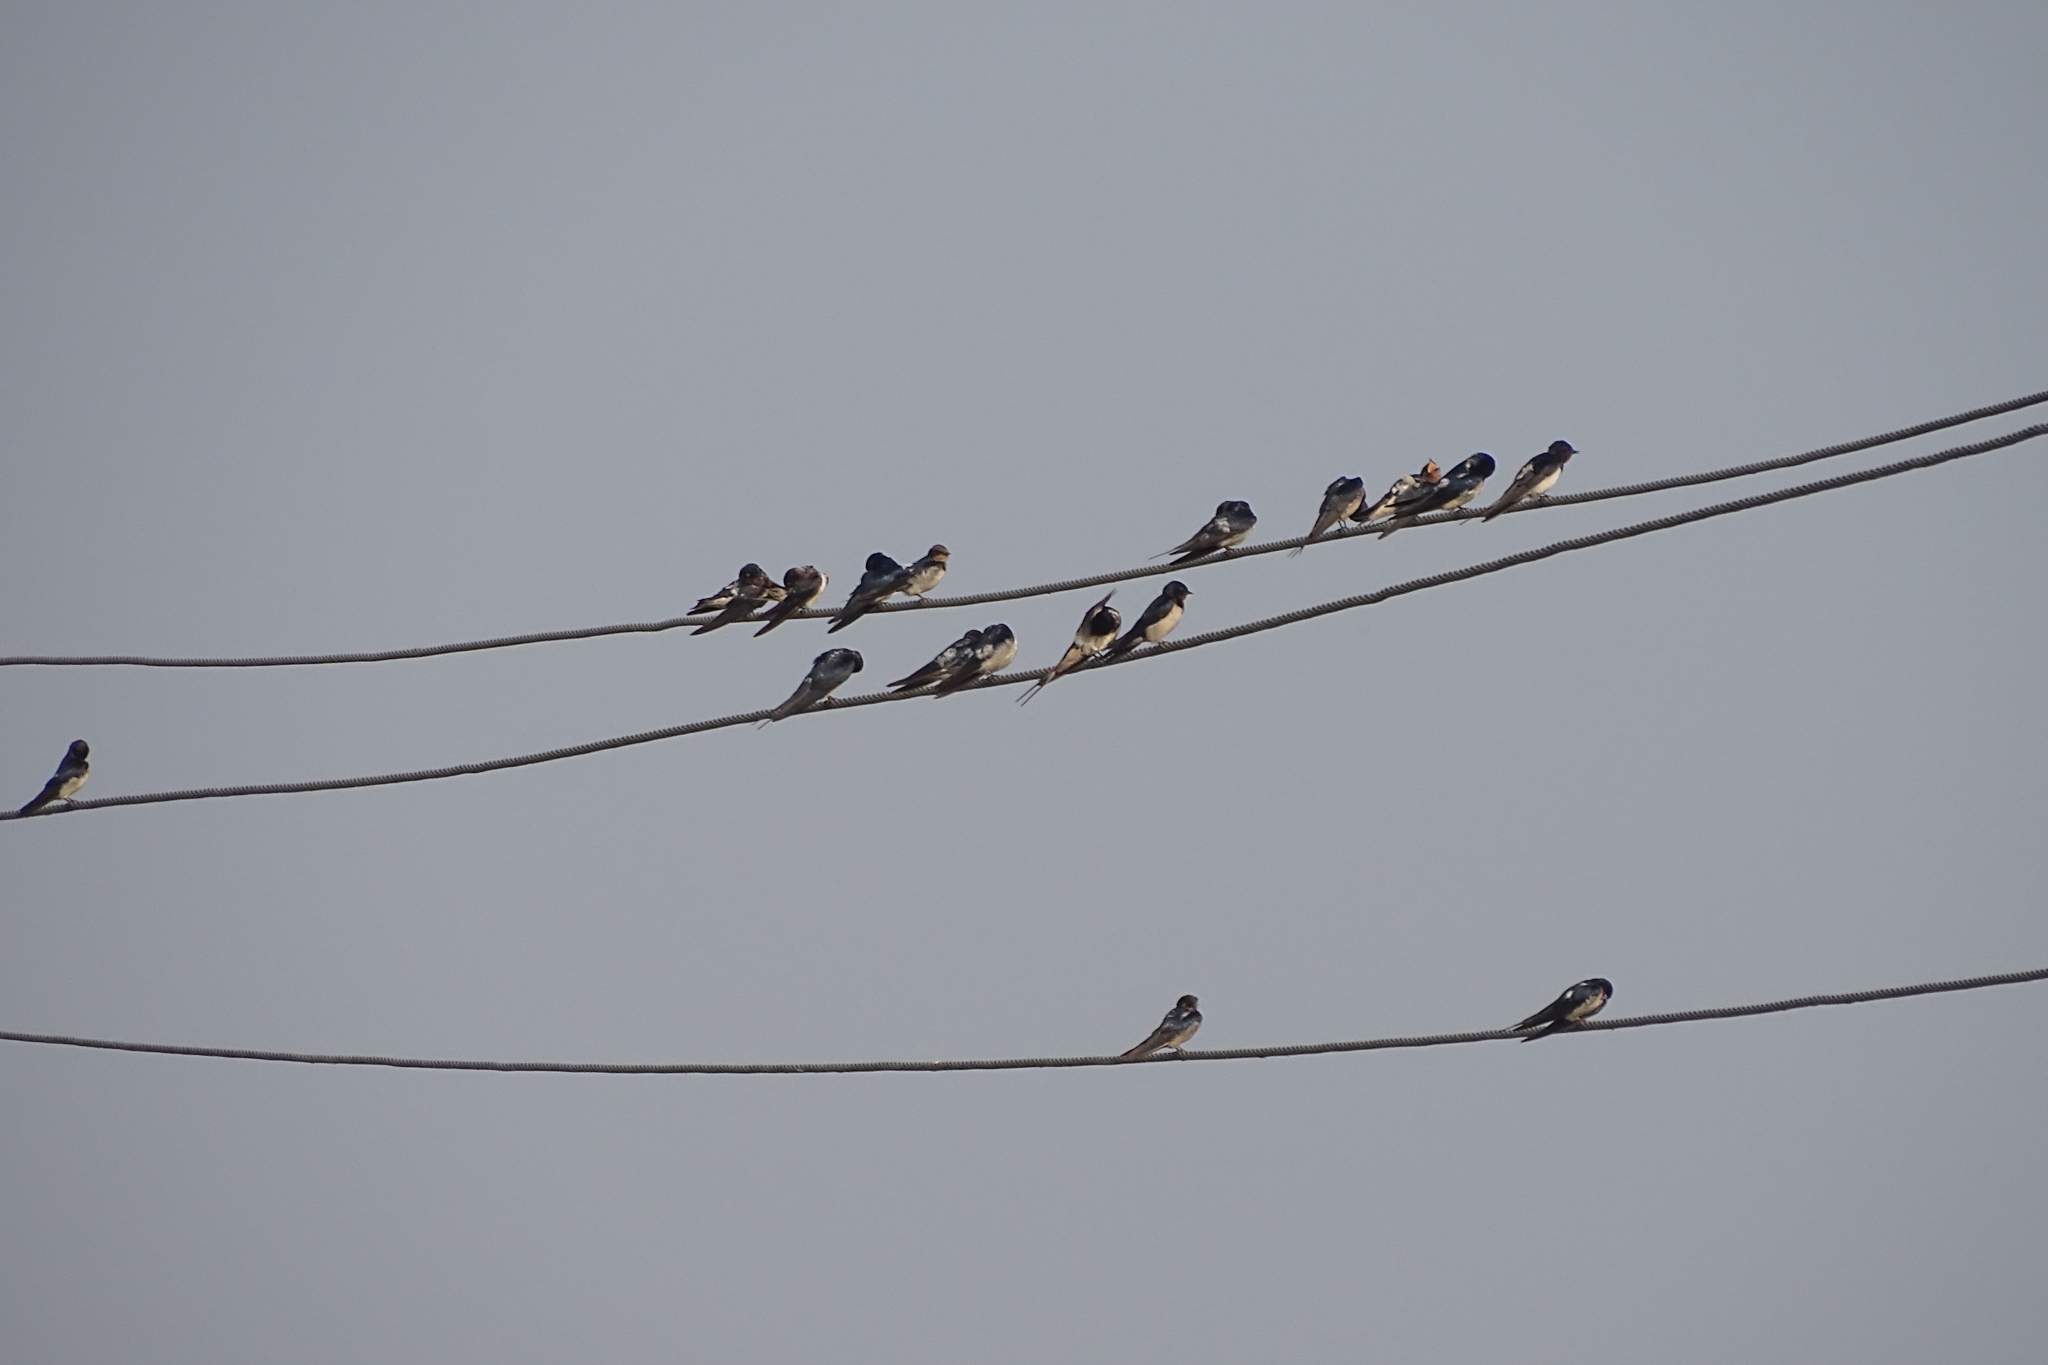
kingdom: Animalia
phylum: Chordata
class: Aves
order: Passeriformes
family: Hirundinidae
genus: Hirundo
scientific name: Hirundo rustica
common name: Barn swallow
